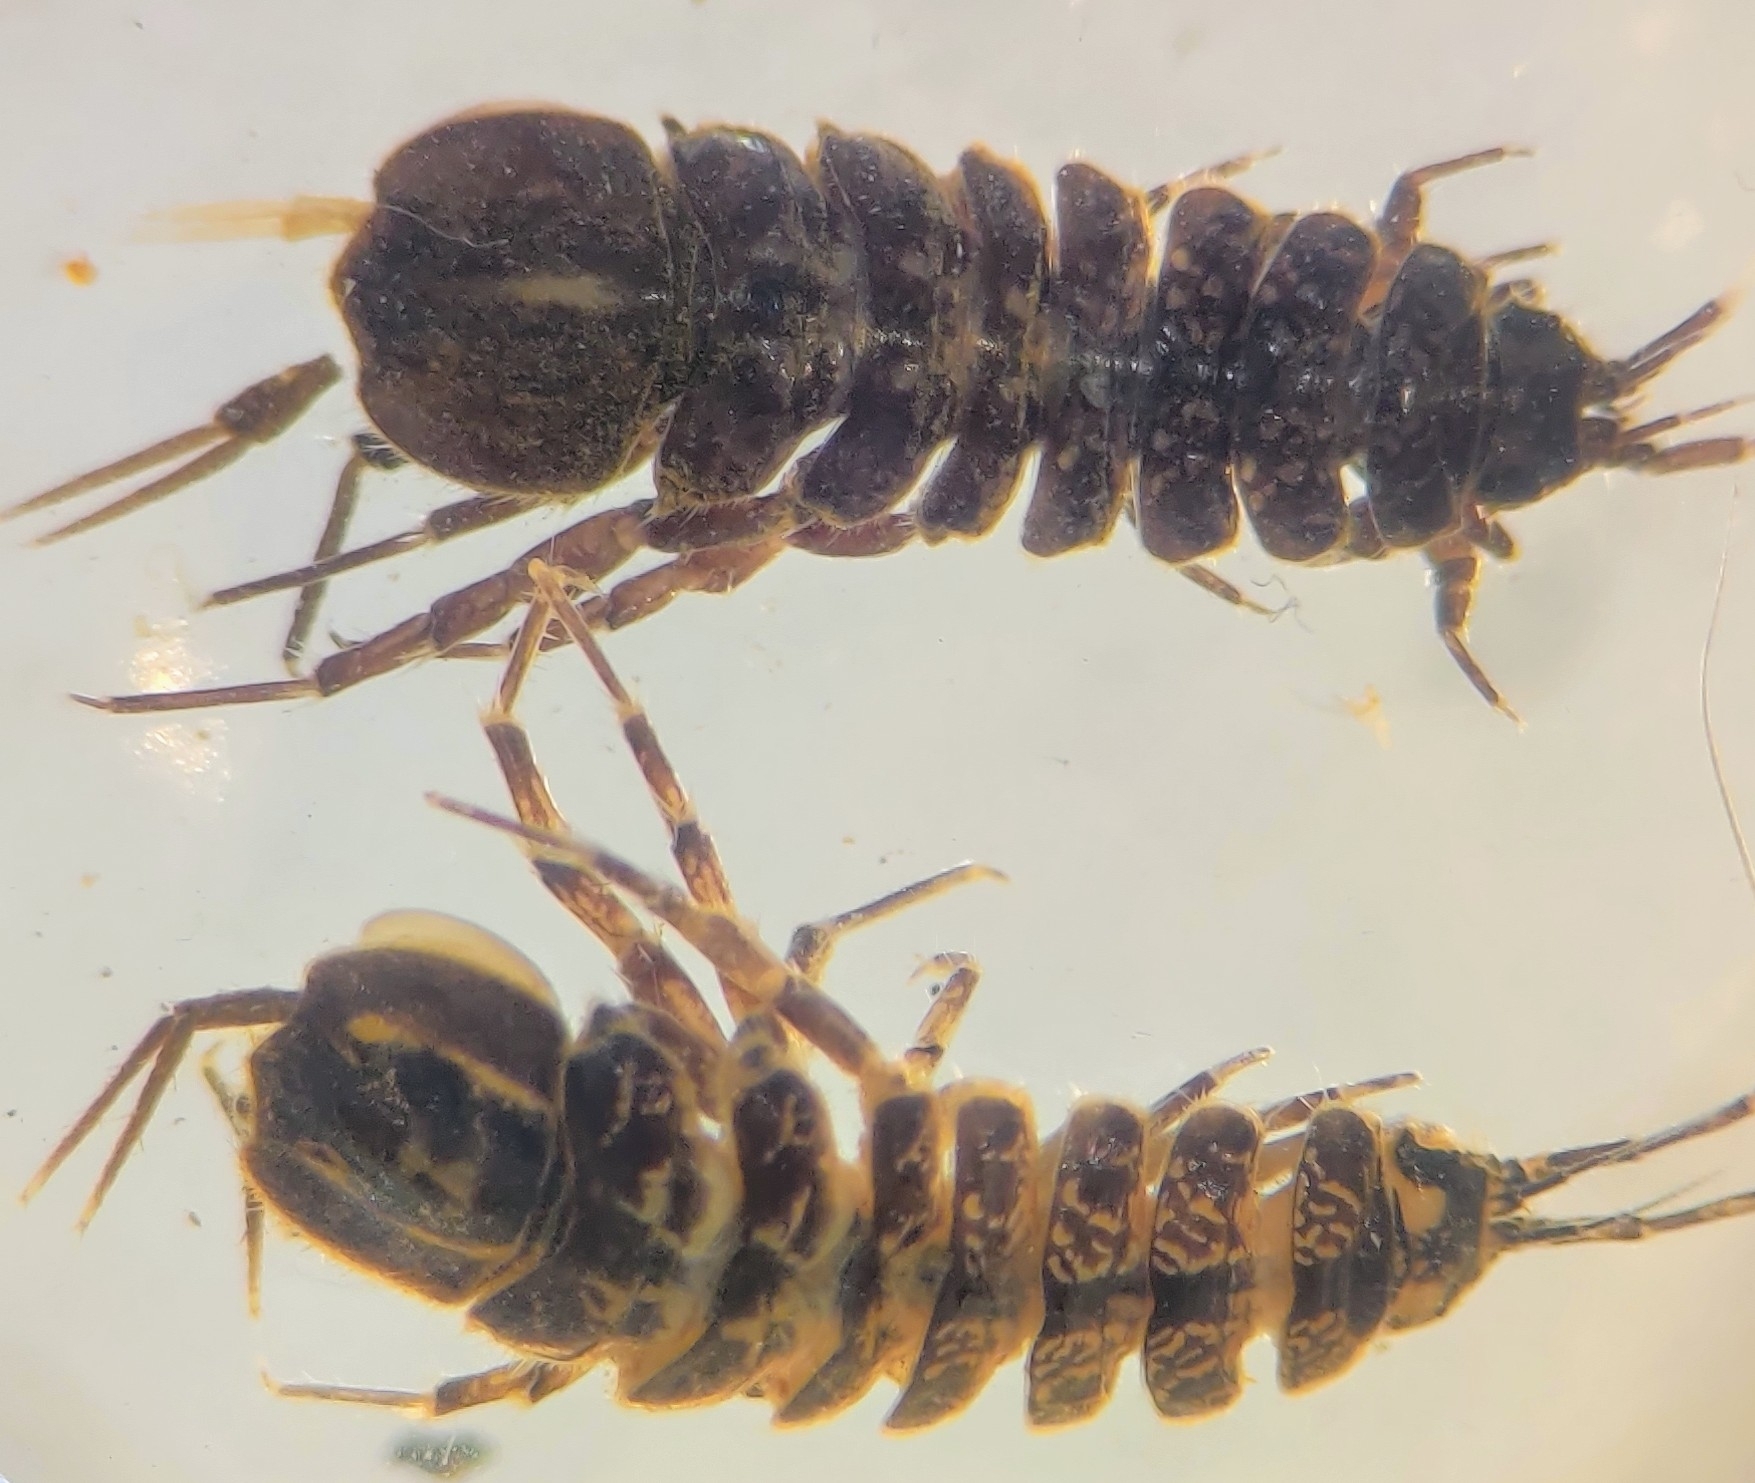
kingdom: Animalia
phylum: Arthropoda
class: Malacostraca
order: Isopoda
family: Asellidae
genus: Asellus
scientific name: Asellus aquaticus
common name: Water hog lice/slaters
